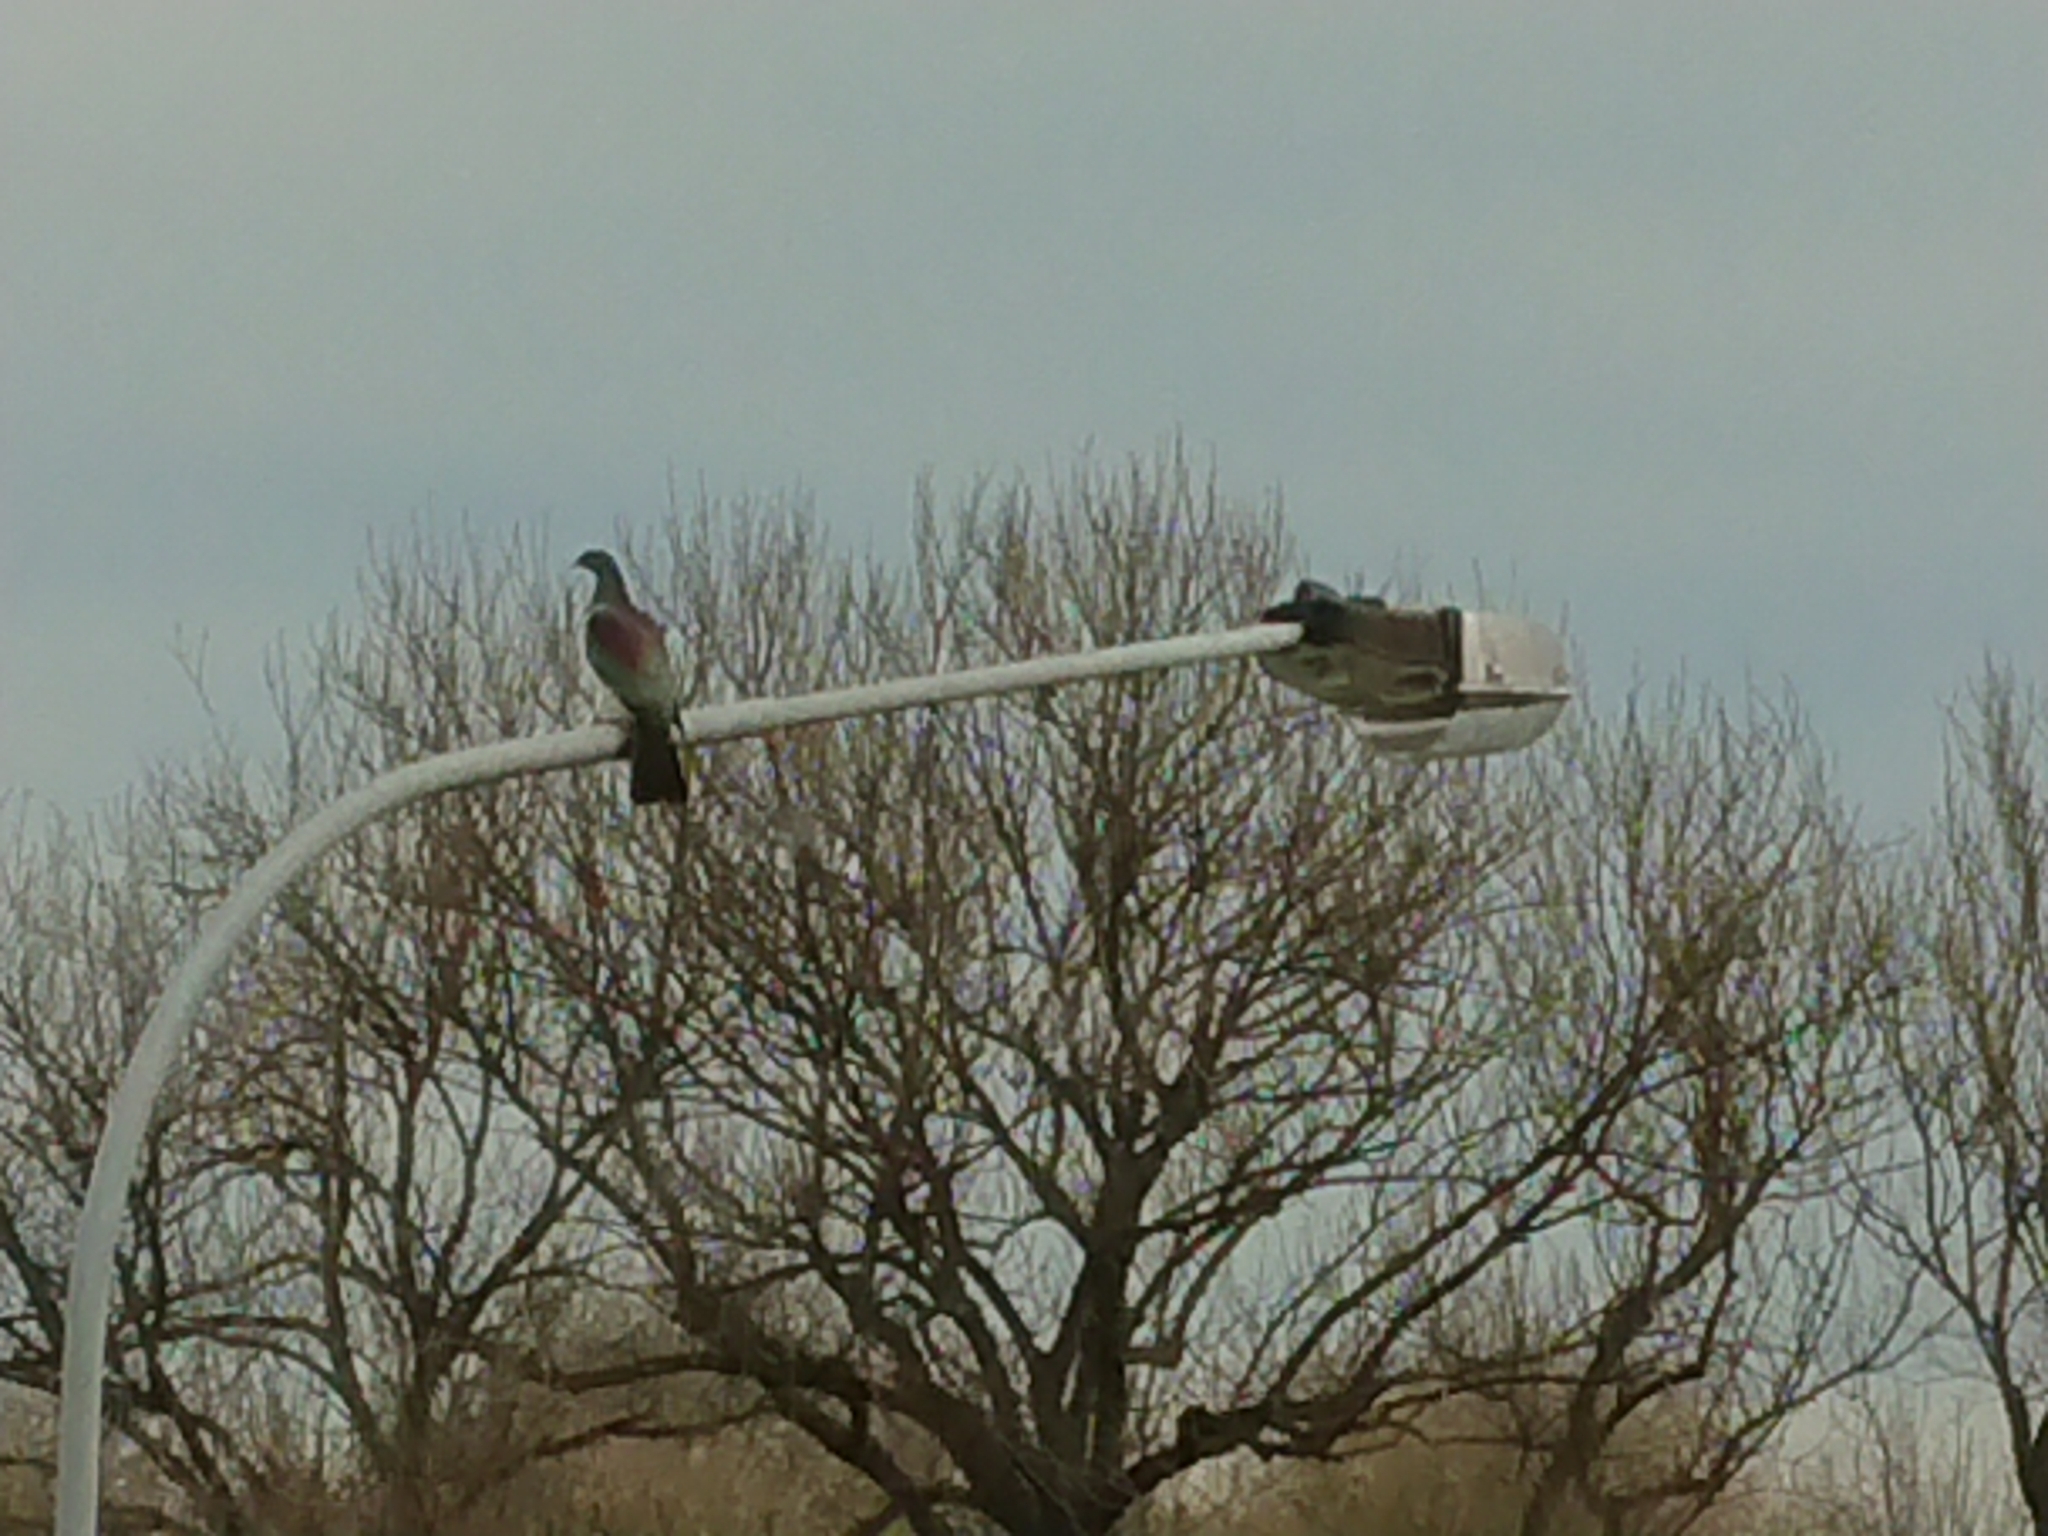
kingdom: Animalia
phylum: Chordata
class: Aves
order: Columbiformes
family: Columbidae
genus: Hemiphaga
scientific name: Hemiphaga novaeseelandiae
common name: New zealand pigeon
